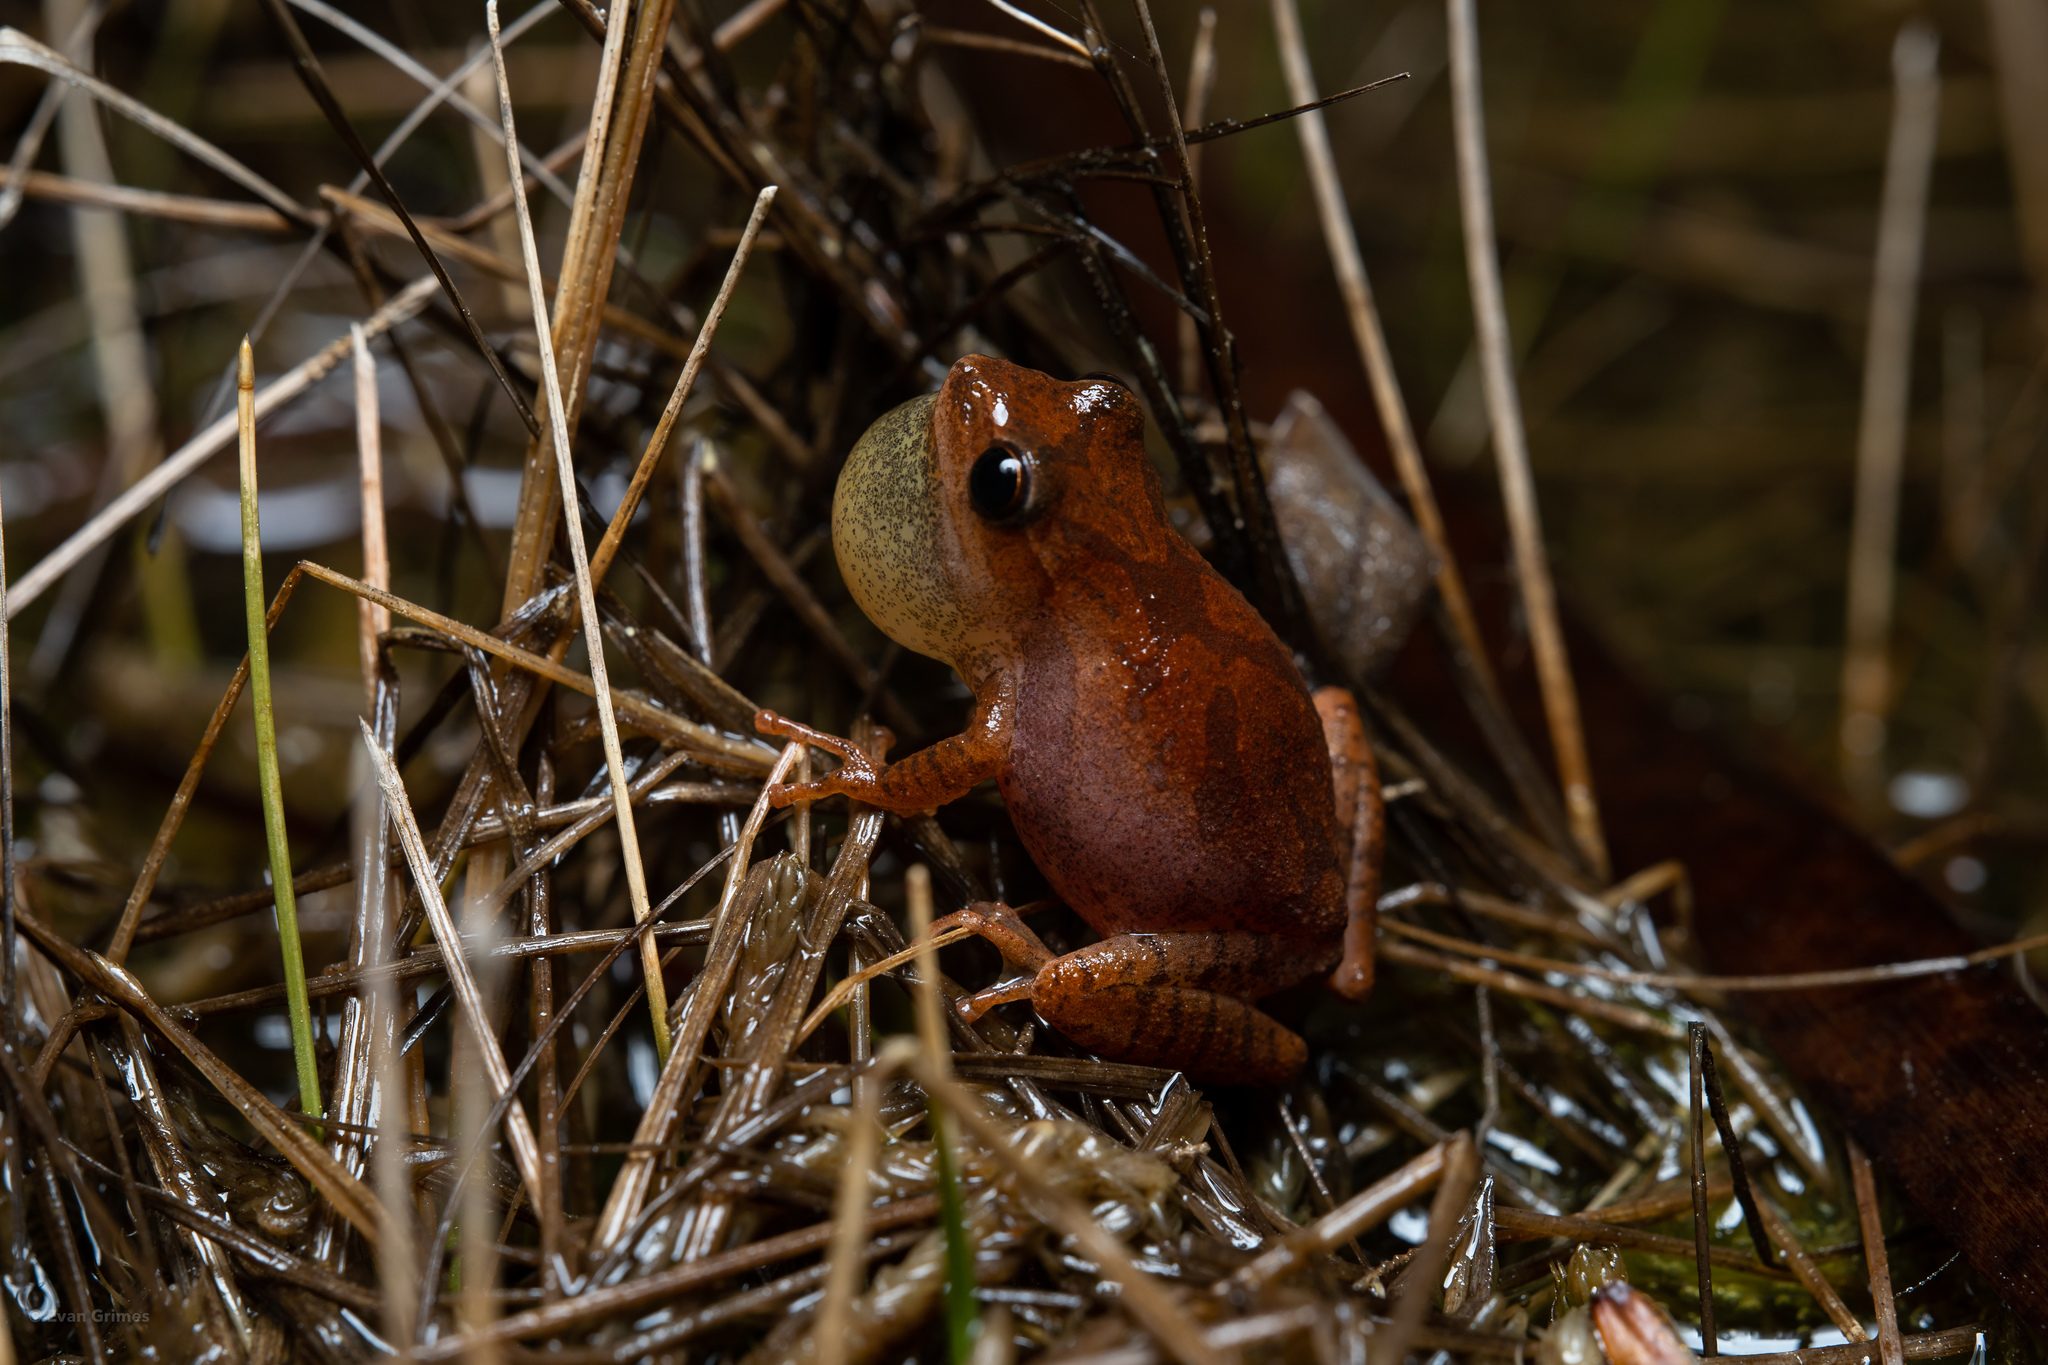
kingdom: Animalia
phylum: Chordata
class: Amphibia
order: Anura
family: Hylidae
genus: Pseudacris
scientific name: Pseudacris crucifer
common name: Spring peeper
